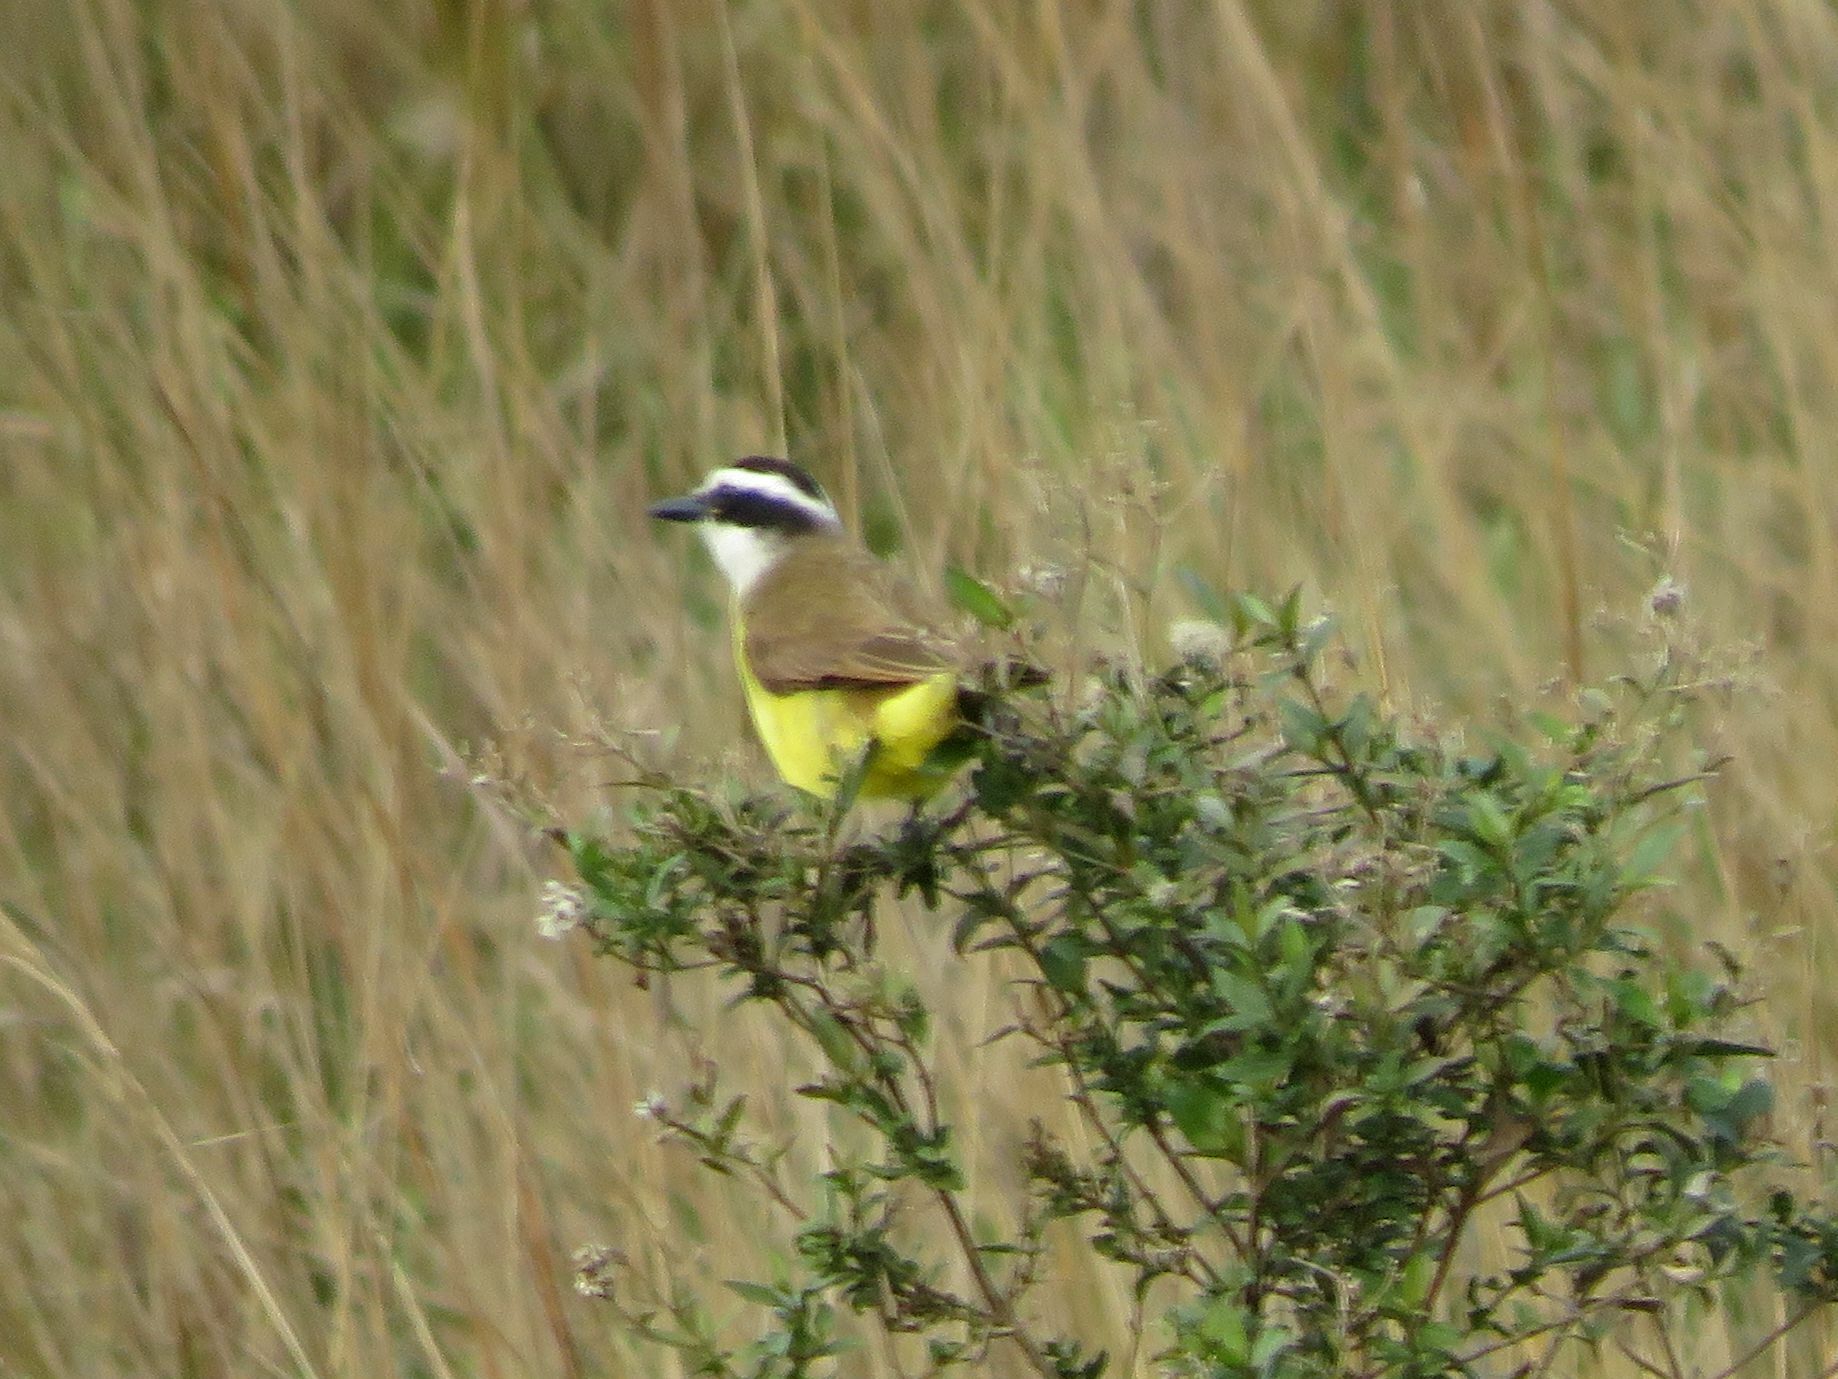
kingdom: Animalia
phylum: Chordata
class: Aves
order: Passeriformes
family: Tyrannidae
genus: Pitangus
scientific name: Pitangus sulphuratus
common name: Great kiskadee
